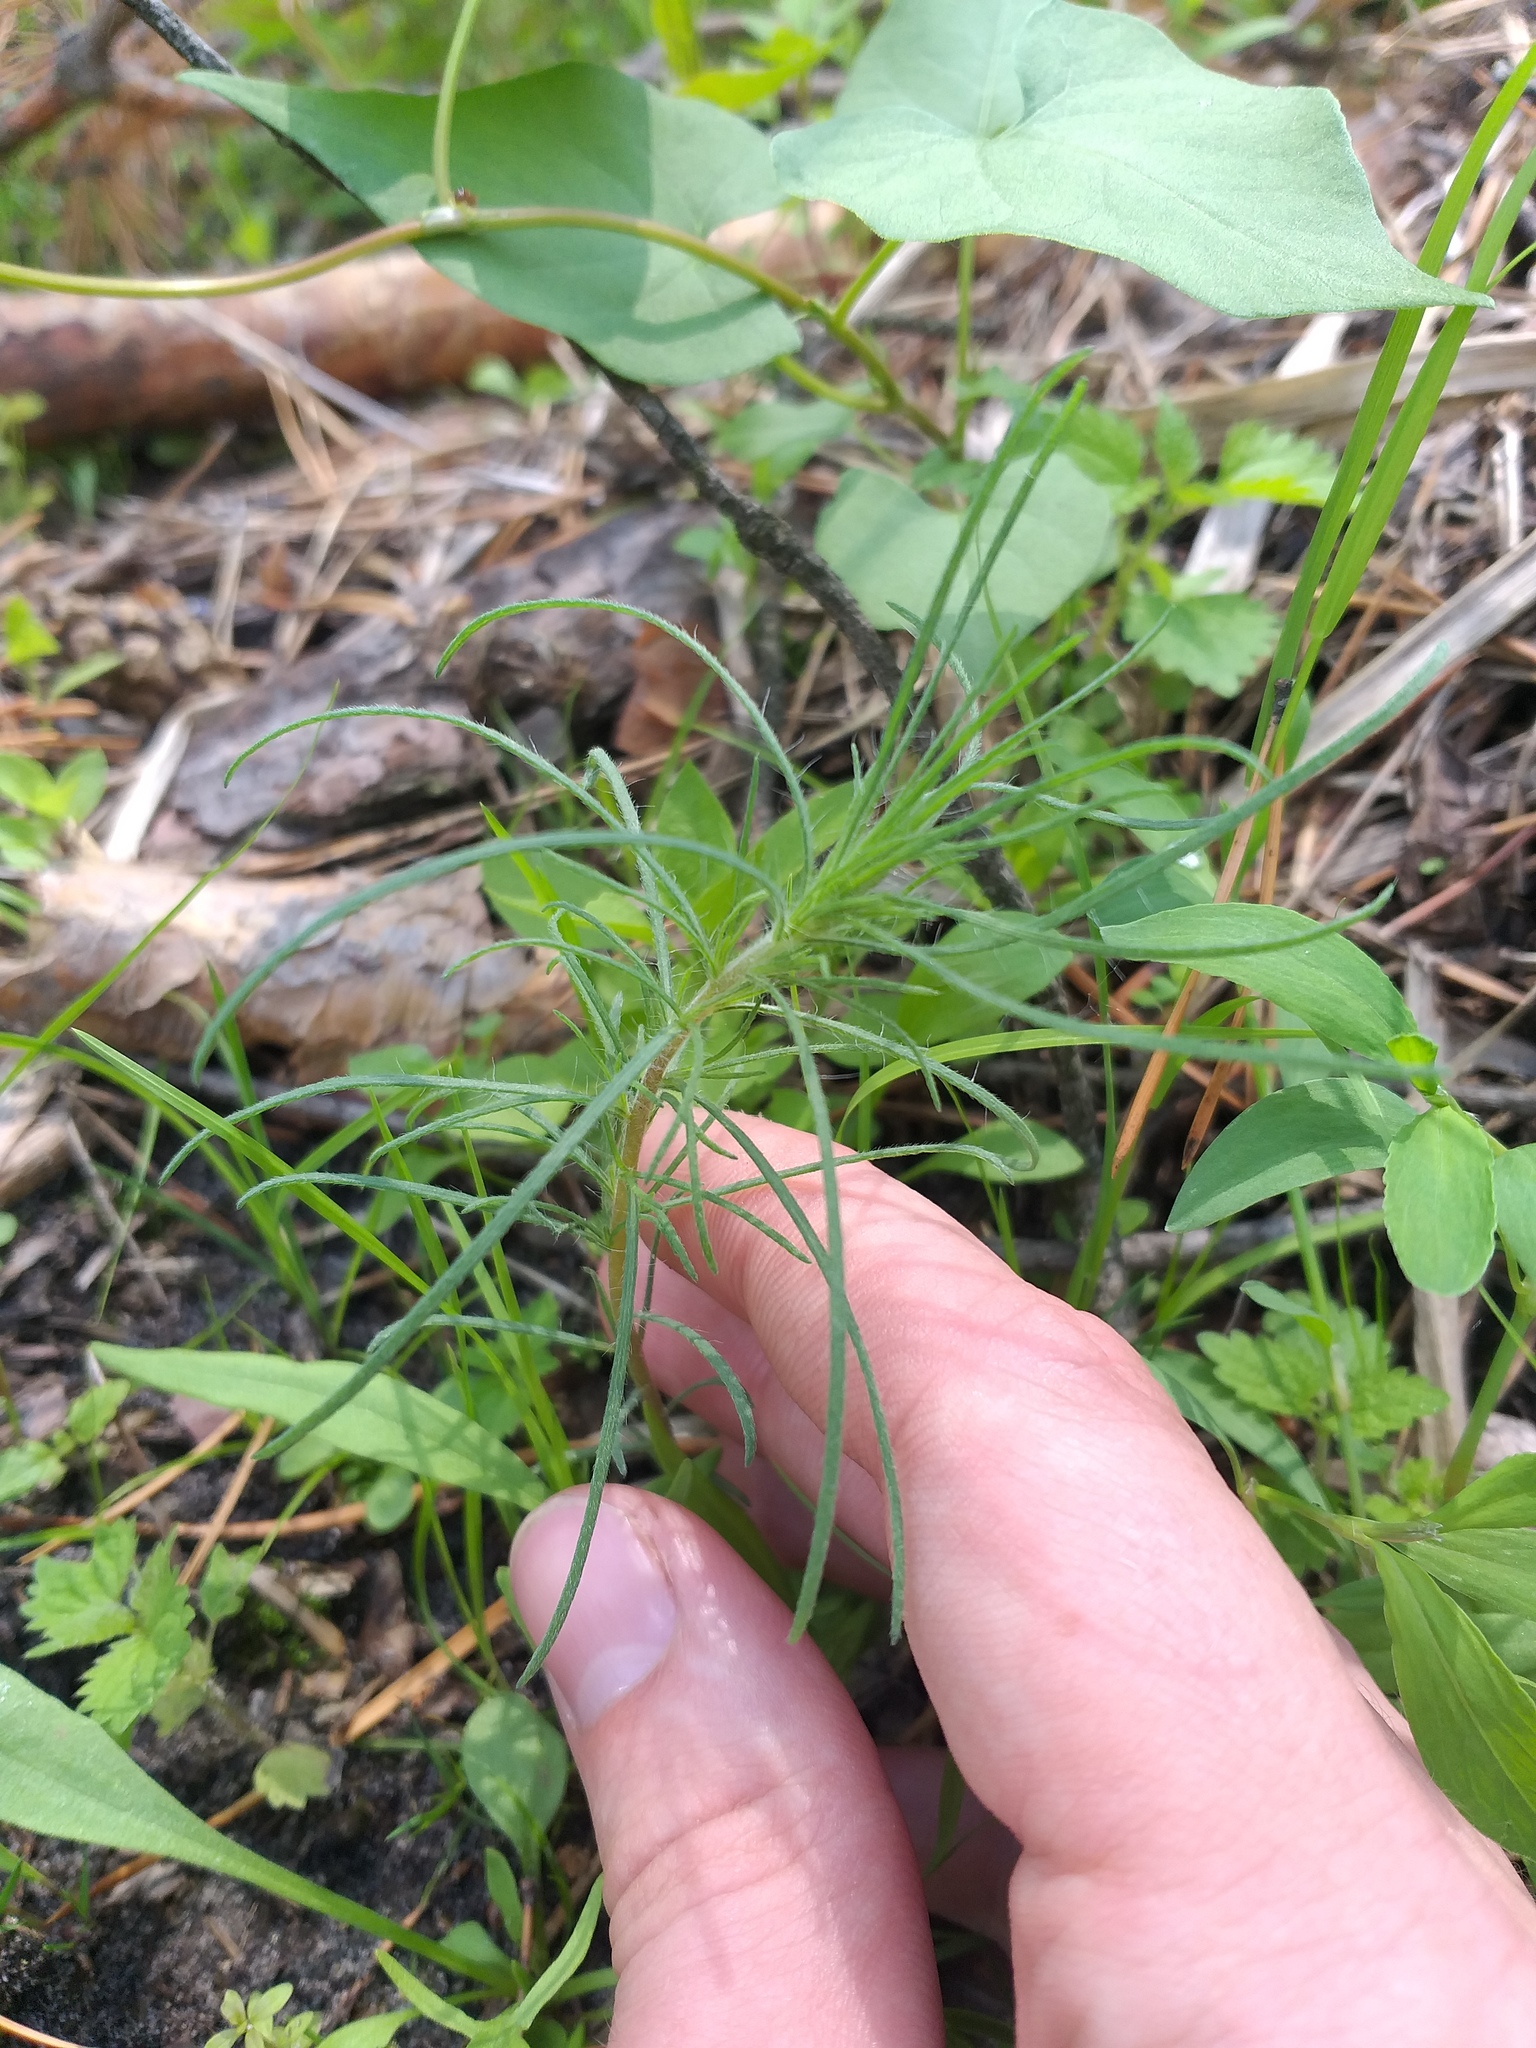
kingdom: Plantae
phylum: Tracheophyta
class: Magnoliopsida
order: Caryophyllales
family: Amaranthaceae
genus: Bassia
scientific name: Bassia laniflora
